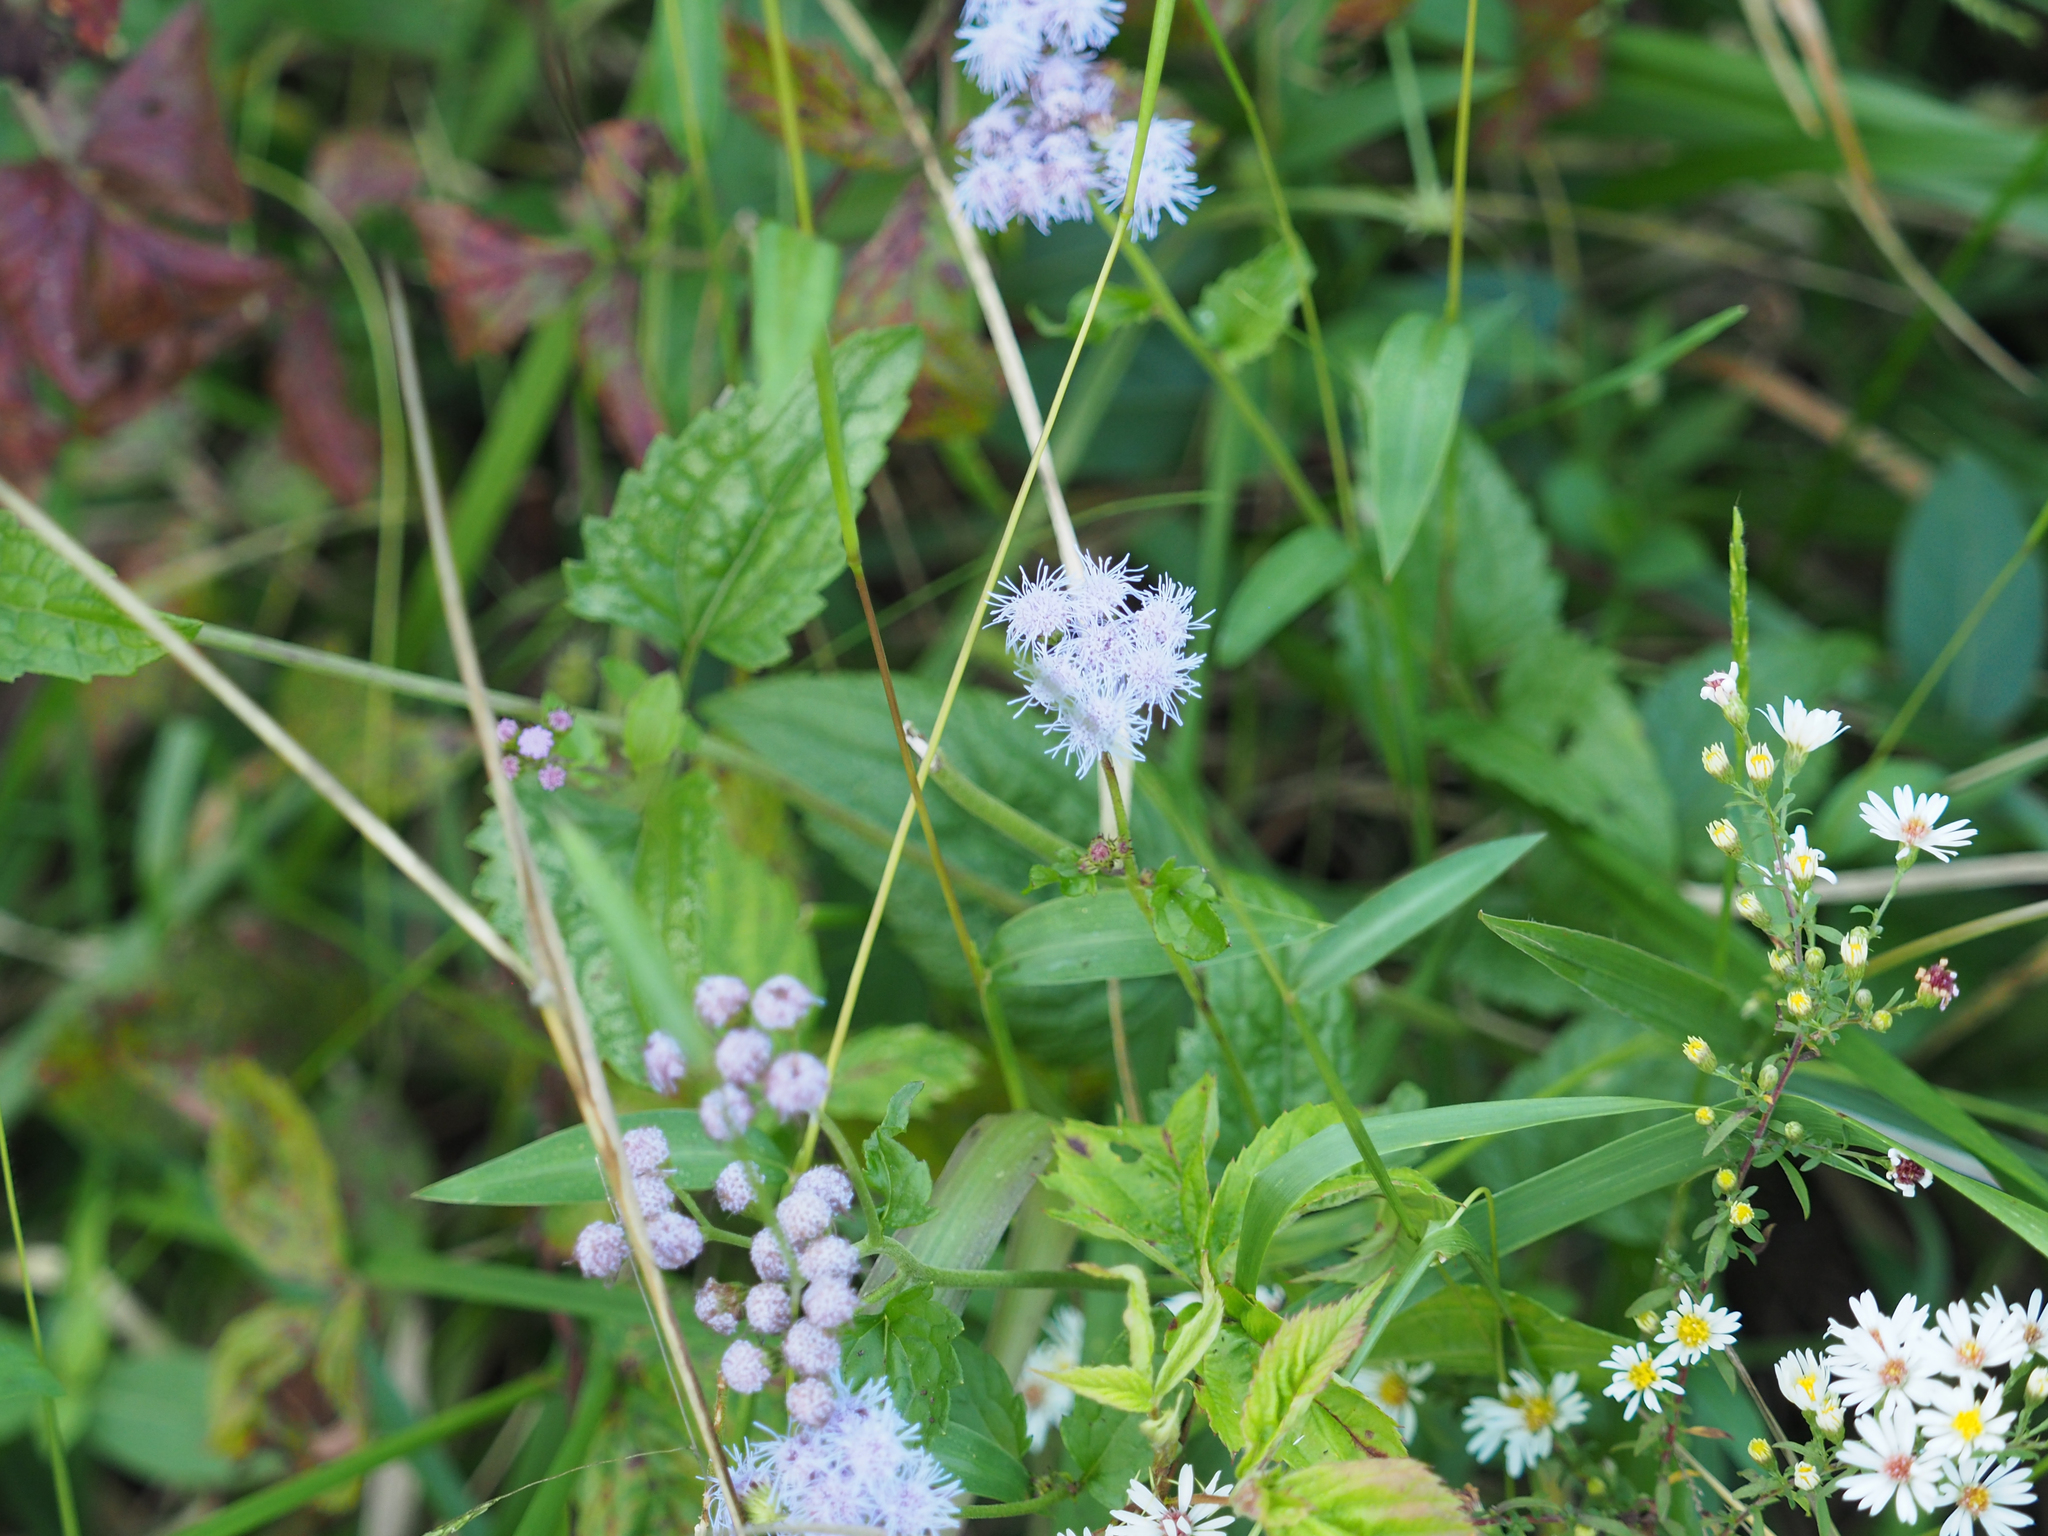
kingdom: Plantae
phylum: Tracheophyta
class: Magnoliopsida
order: Asterales
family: Asteraceae
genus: Conoclinium
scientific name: Conoclinium coelestinum
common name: Blue mistflower
